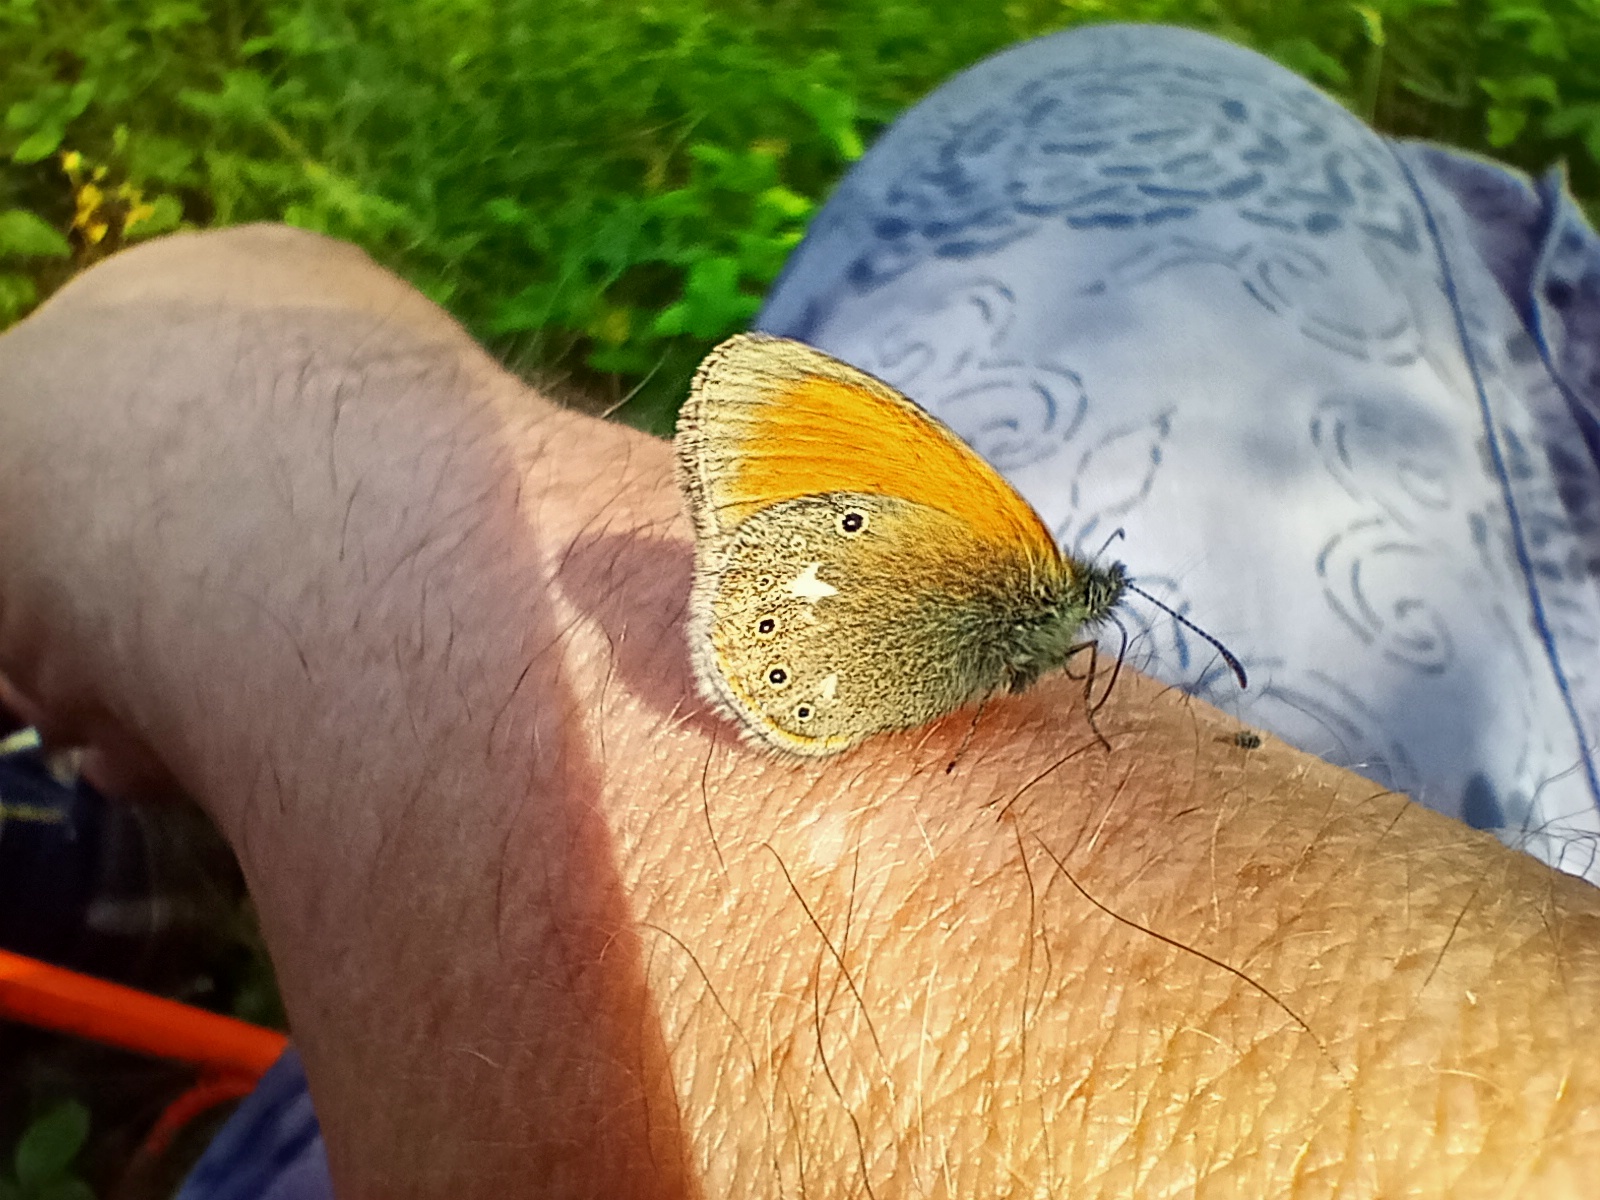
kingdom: Animalia
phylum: Arthropoda
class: Insecta
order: Lepidoptera
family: Nymphalidae
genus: Coenonympha
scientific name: Coenonympha iphis
